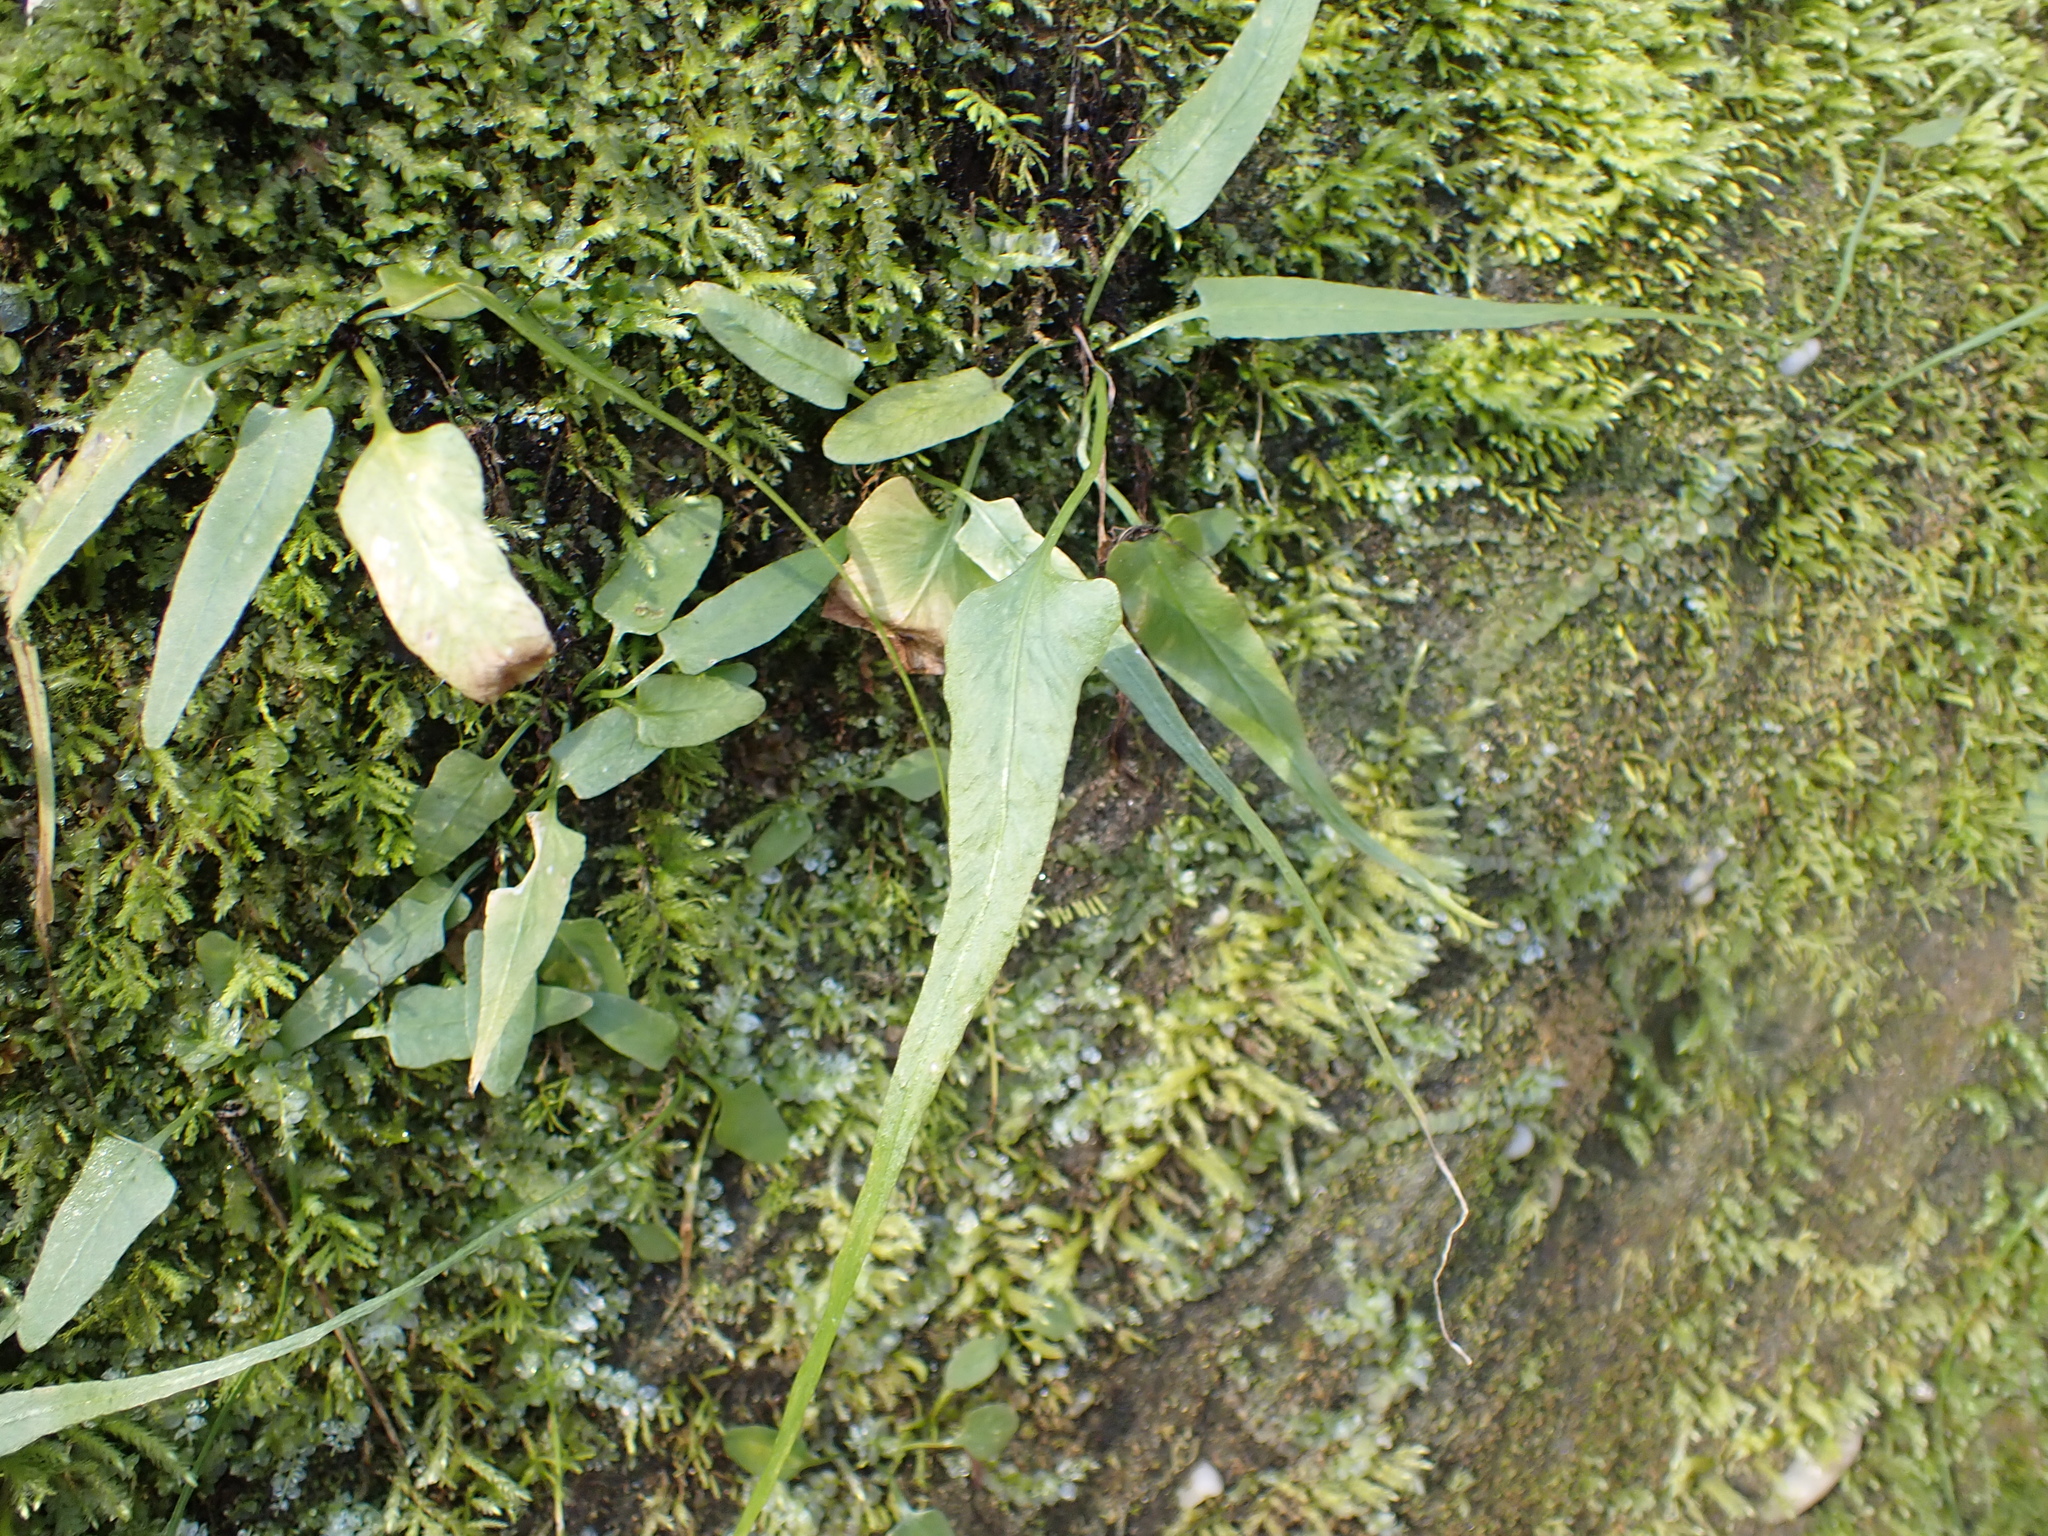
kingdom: Plantae
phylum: Tracheophyta
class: Polypodiopsida
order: Polypodiales
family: Aspleniaceae
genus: Asplenium
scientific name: Asplenium rhizophyllum
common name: Walking fern
